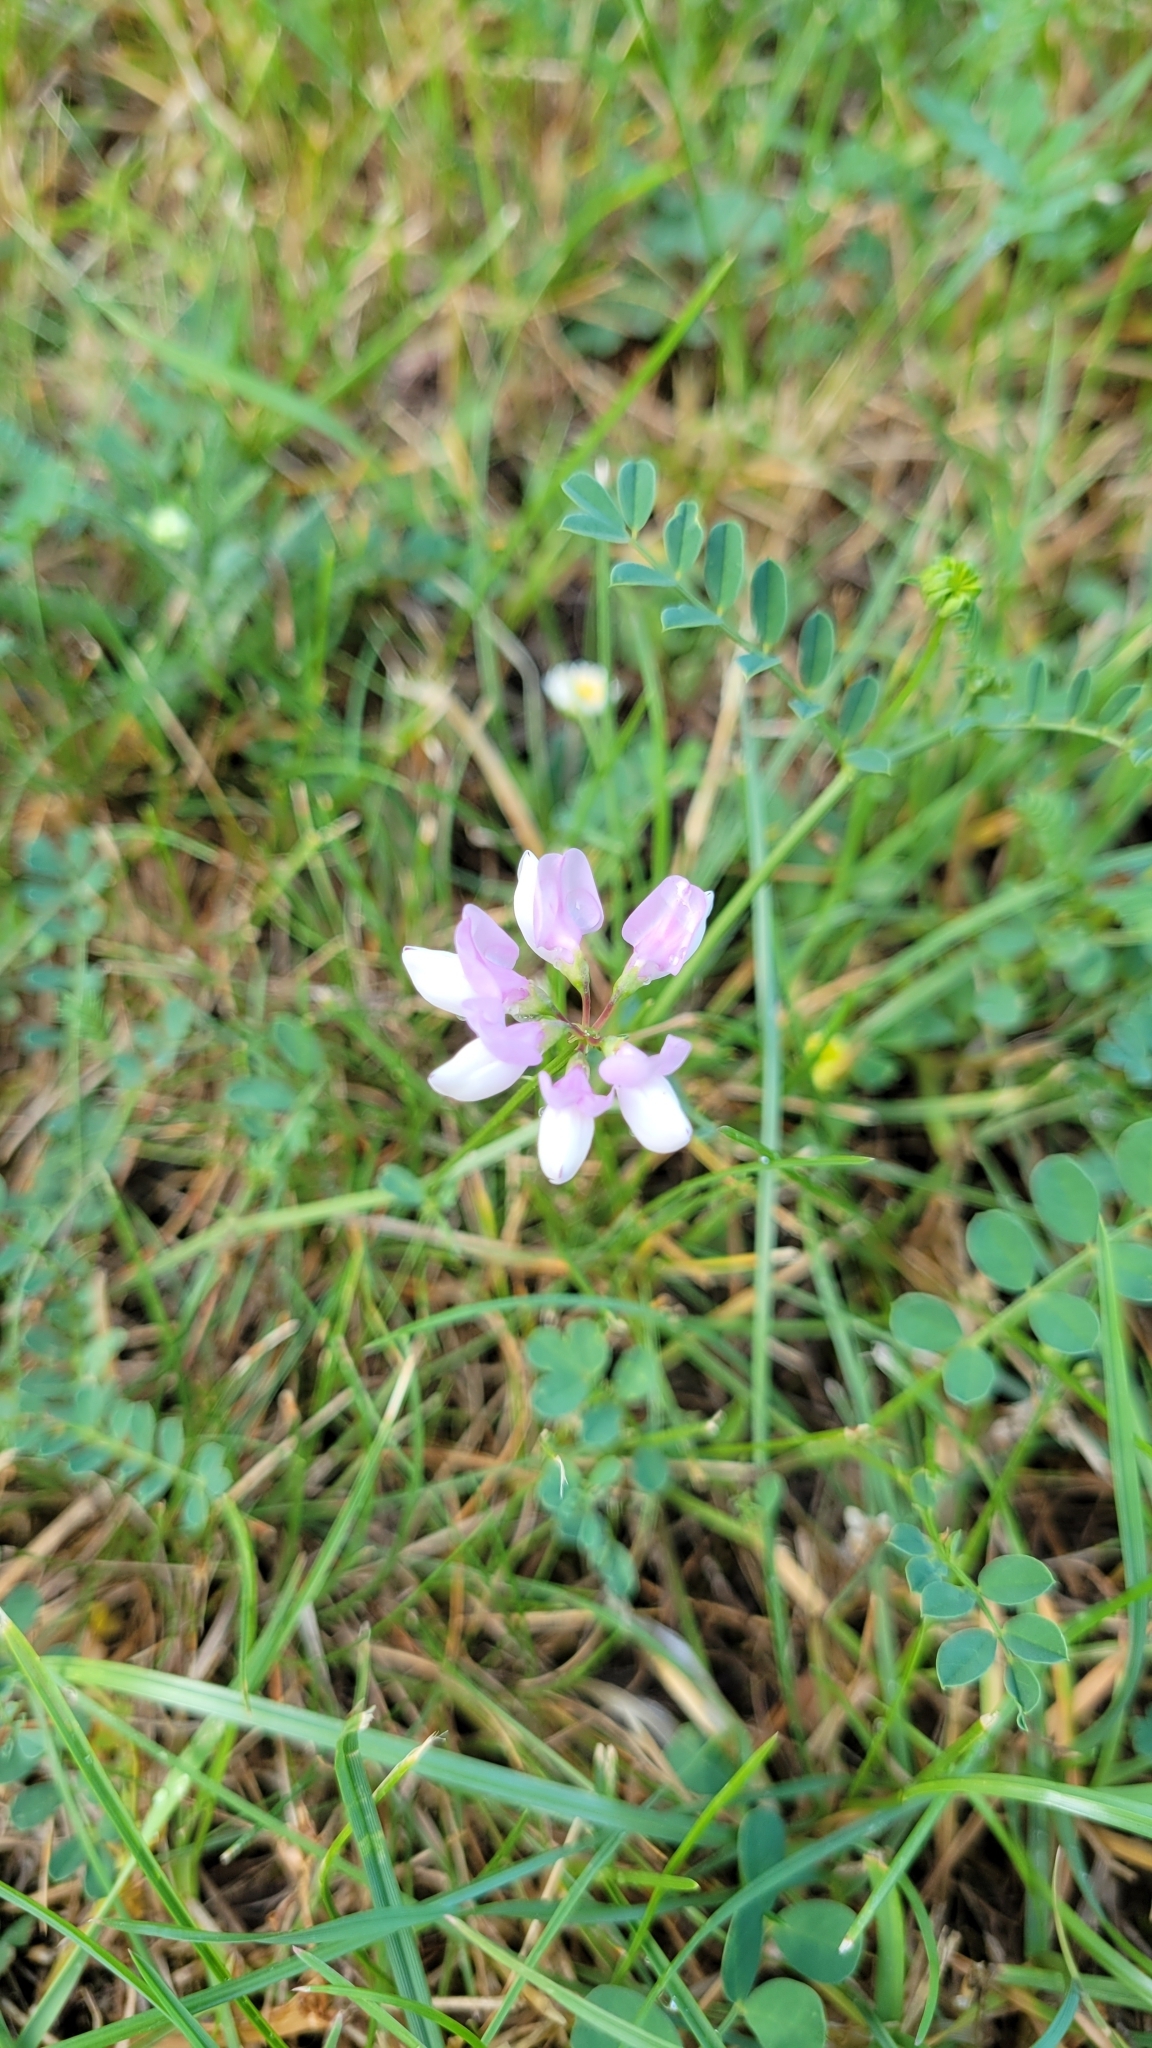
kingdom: Plantae
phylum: Tracheophyta
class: Magnoliopsida
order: Fabales
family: Fabaceae
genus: Coronilla
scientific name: Coronilla varia
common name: Crownvetch
